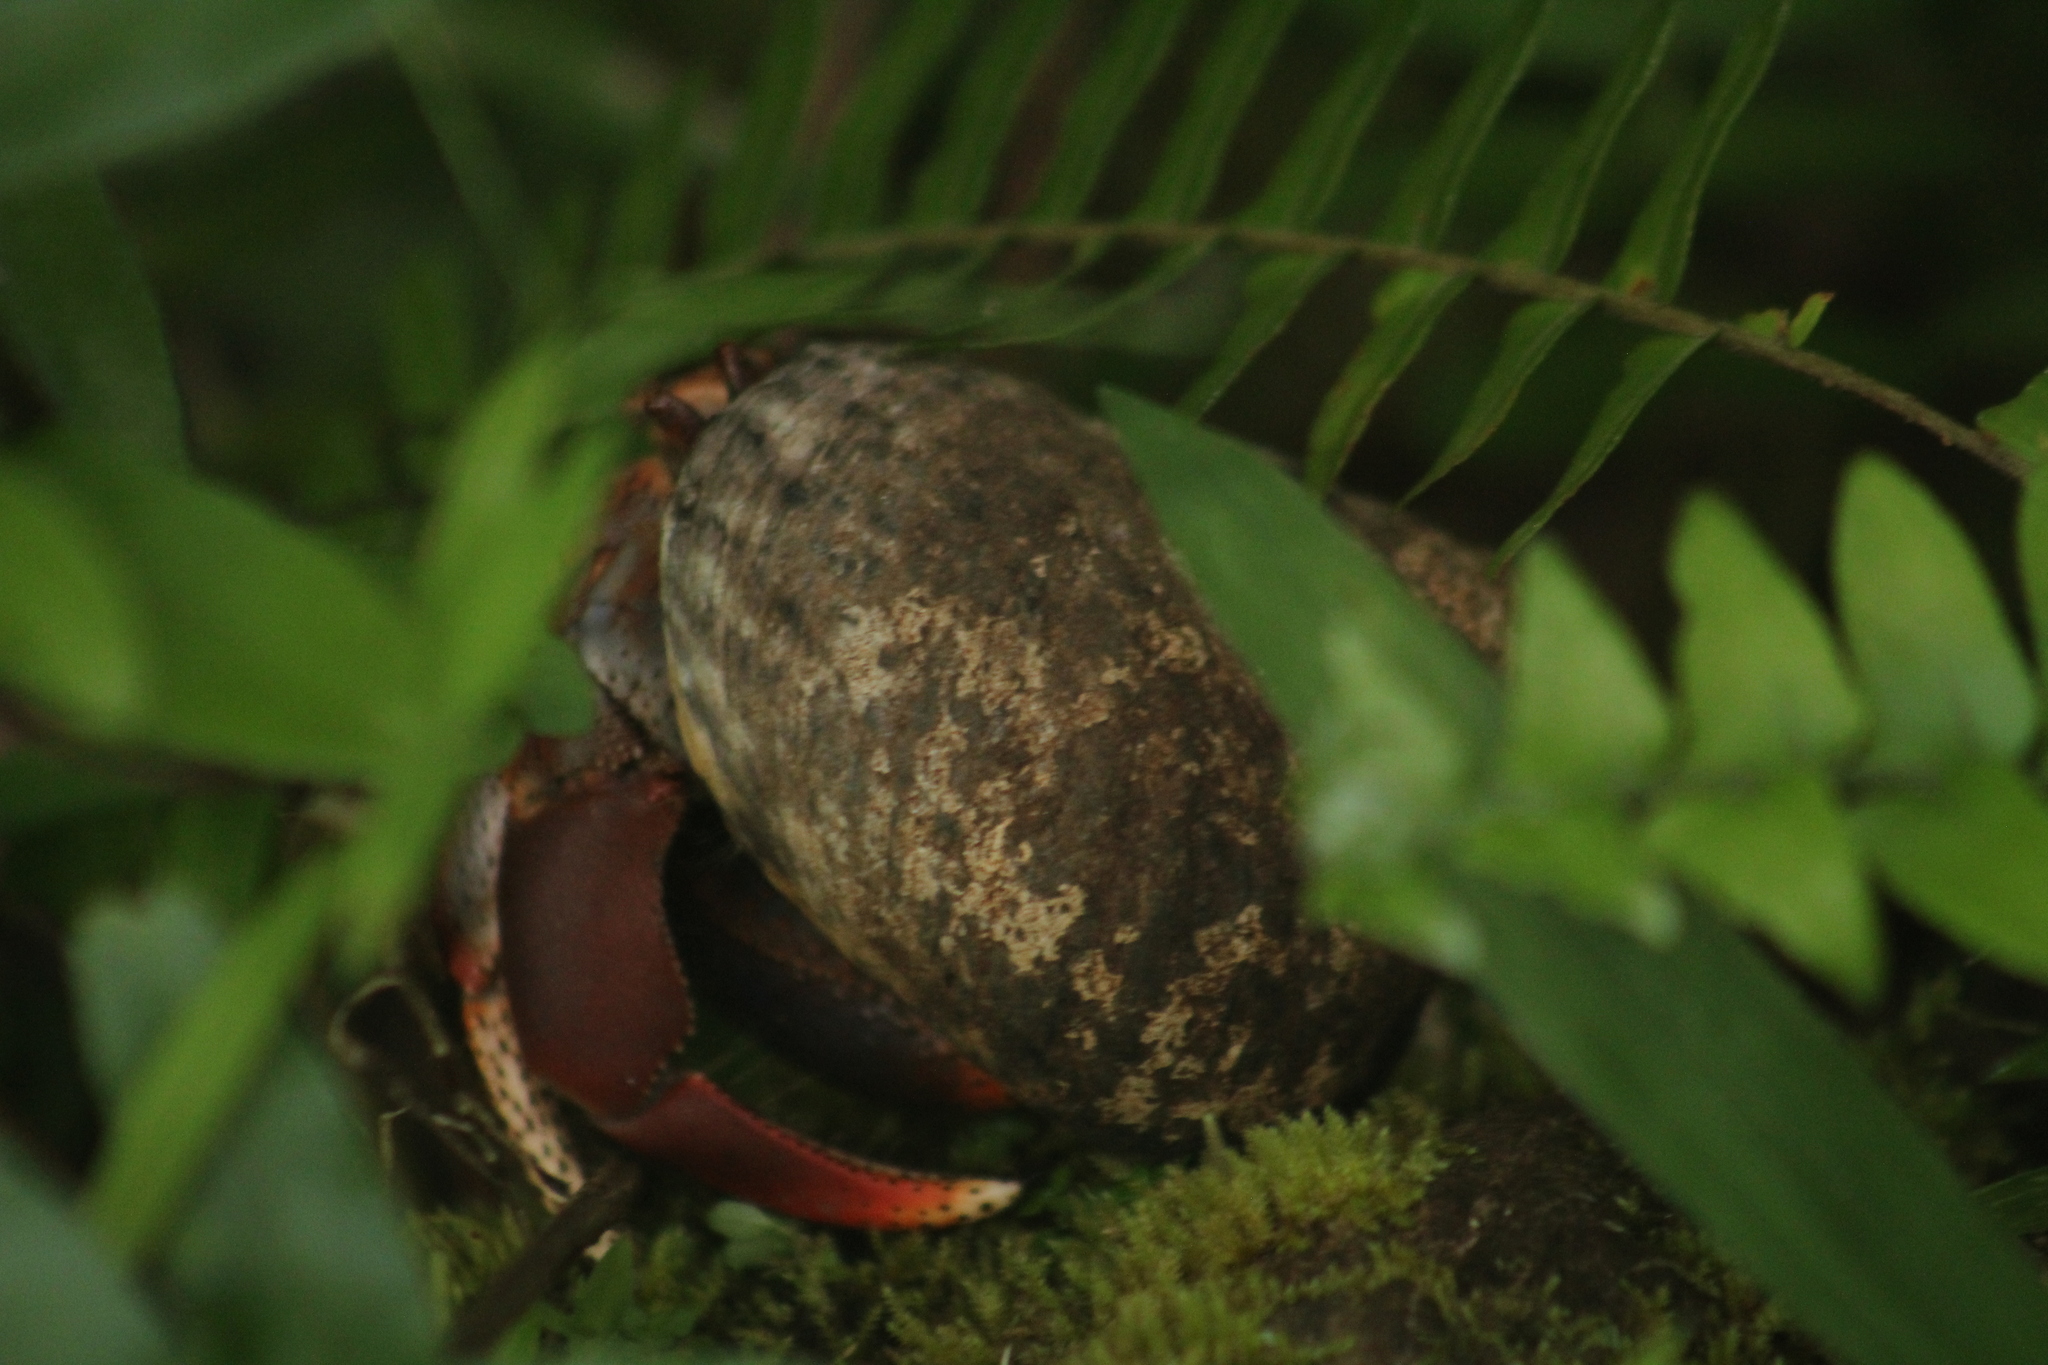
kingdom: Animalia
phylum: Arthropoda
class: Malacostraca
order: Decapoda
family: Coenobitidae
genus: Coenobita
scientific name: Coenobita clypeatus
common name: Caribbean hermit crab
